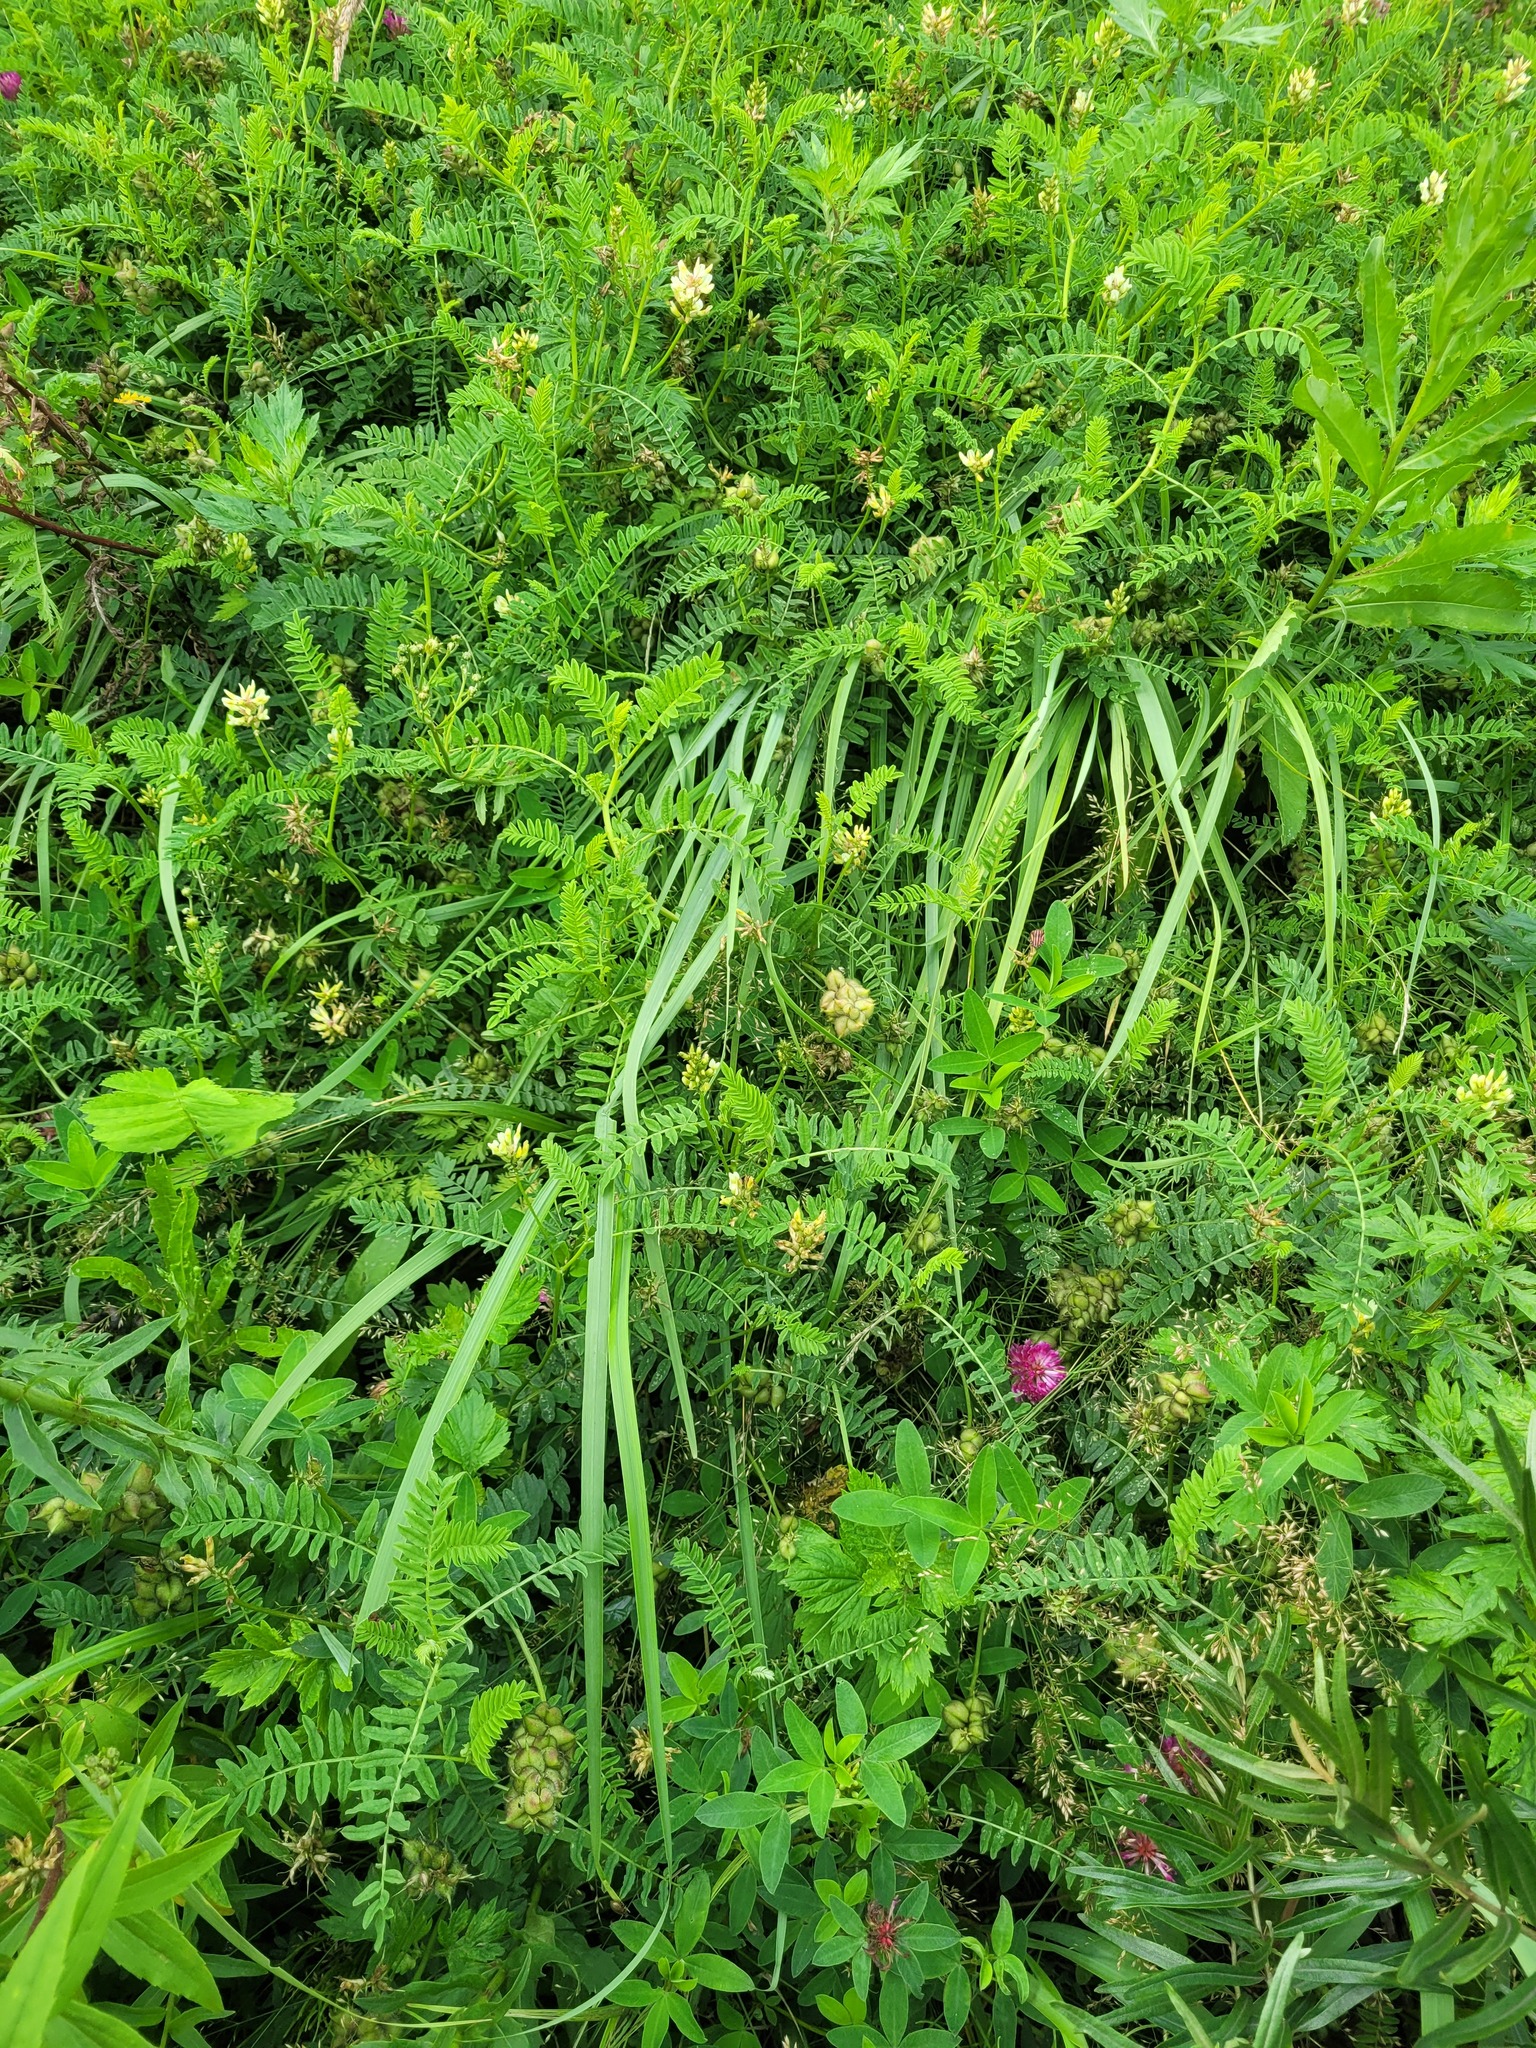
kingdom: Plantae
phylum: Tracheophyta
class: Magnoliopsida
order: Fabales
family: Fabaceae
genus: Astragalus
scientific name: Astragalus cicer
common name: Chick-pea milk-vetch
